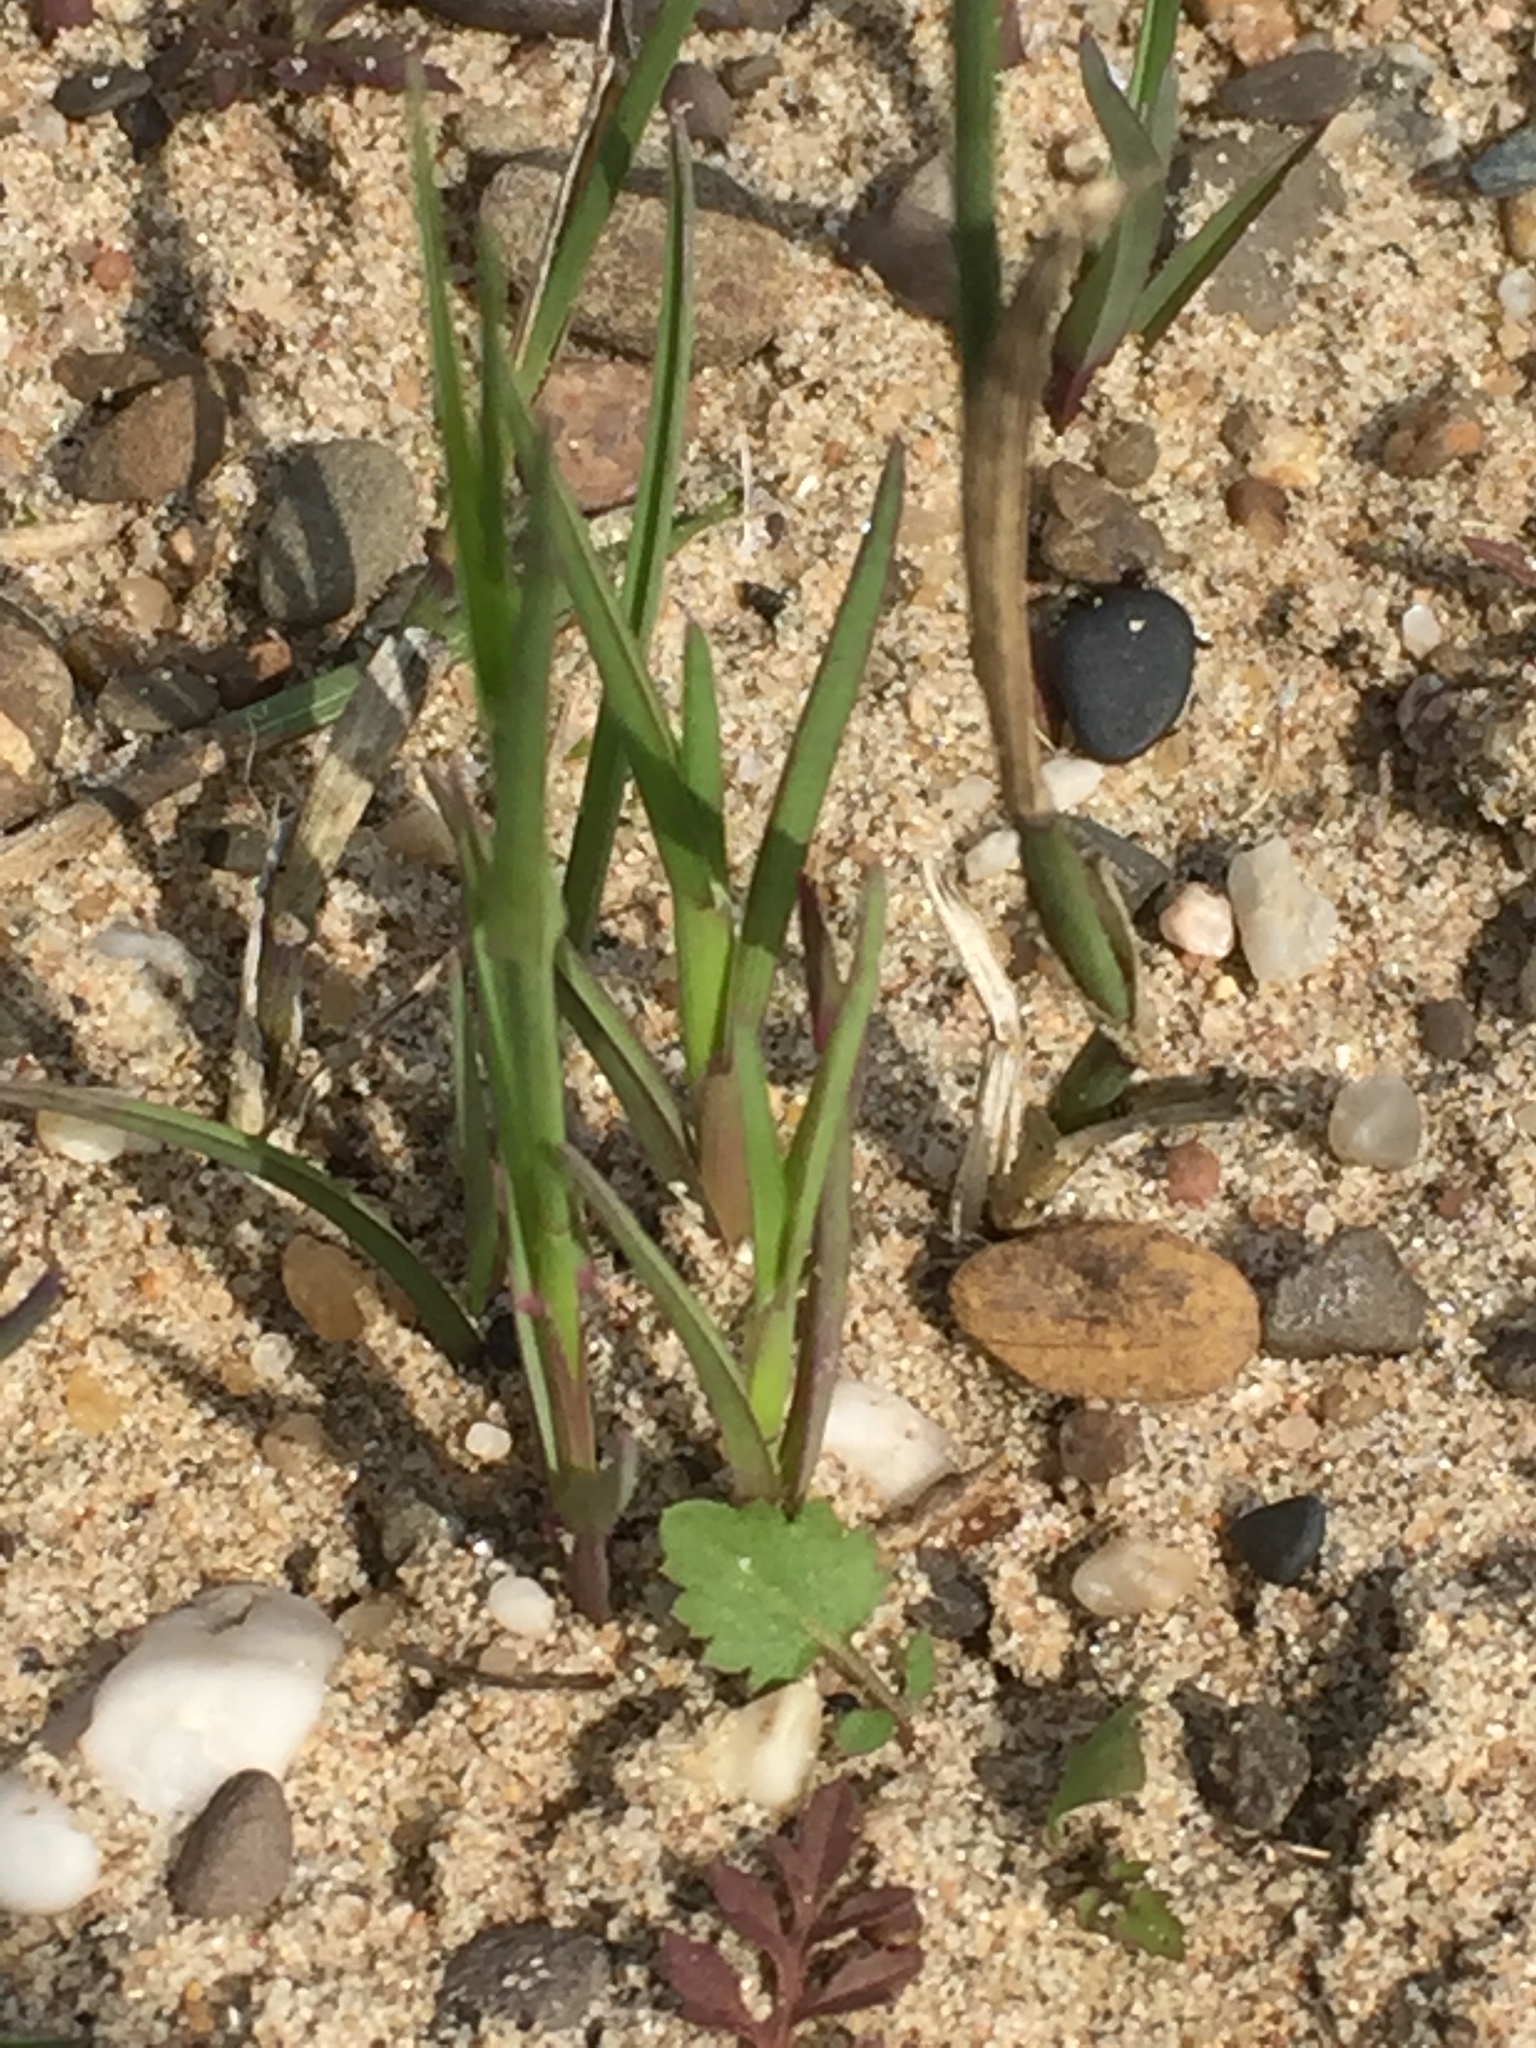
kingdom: Plantae
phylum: Tracheophyta
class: Liliopsida
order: Poales
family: Poaceae
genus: Poa
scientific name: Poa compressa
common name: Canada bluegrass
